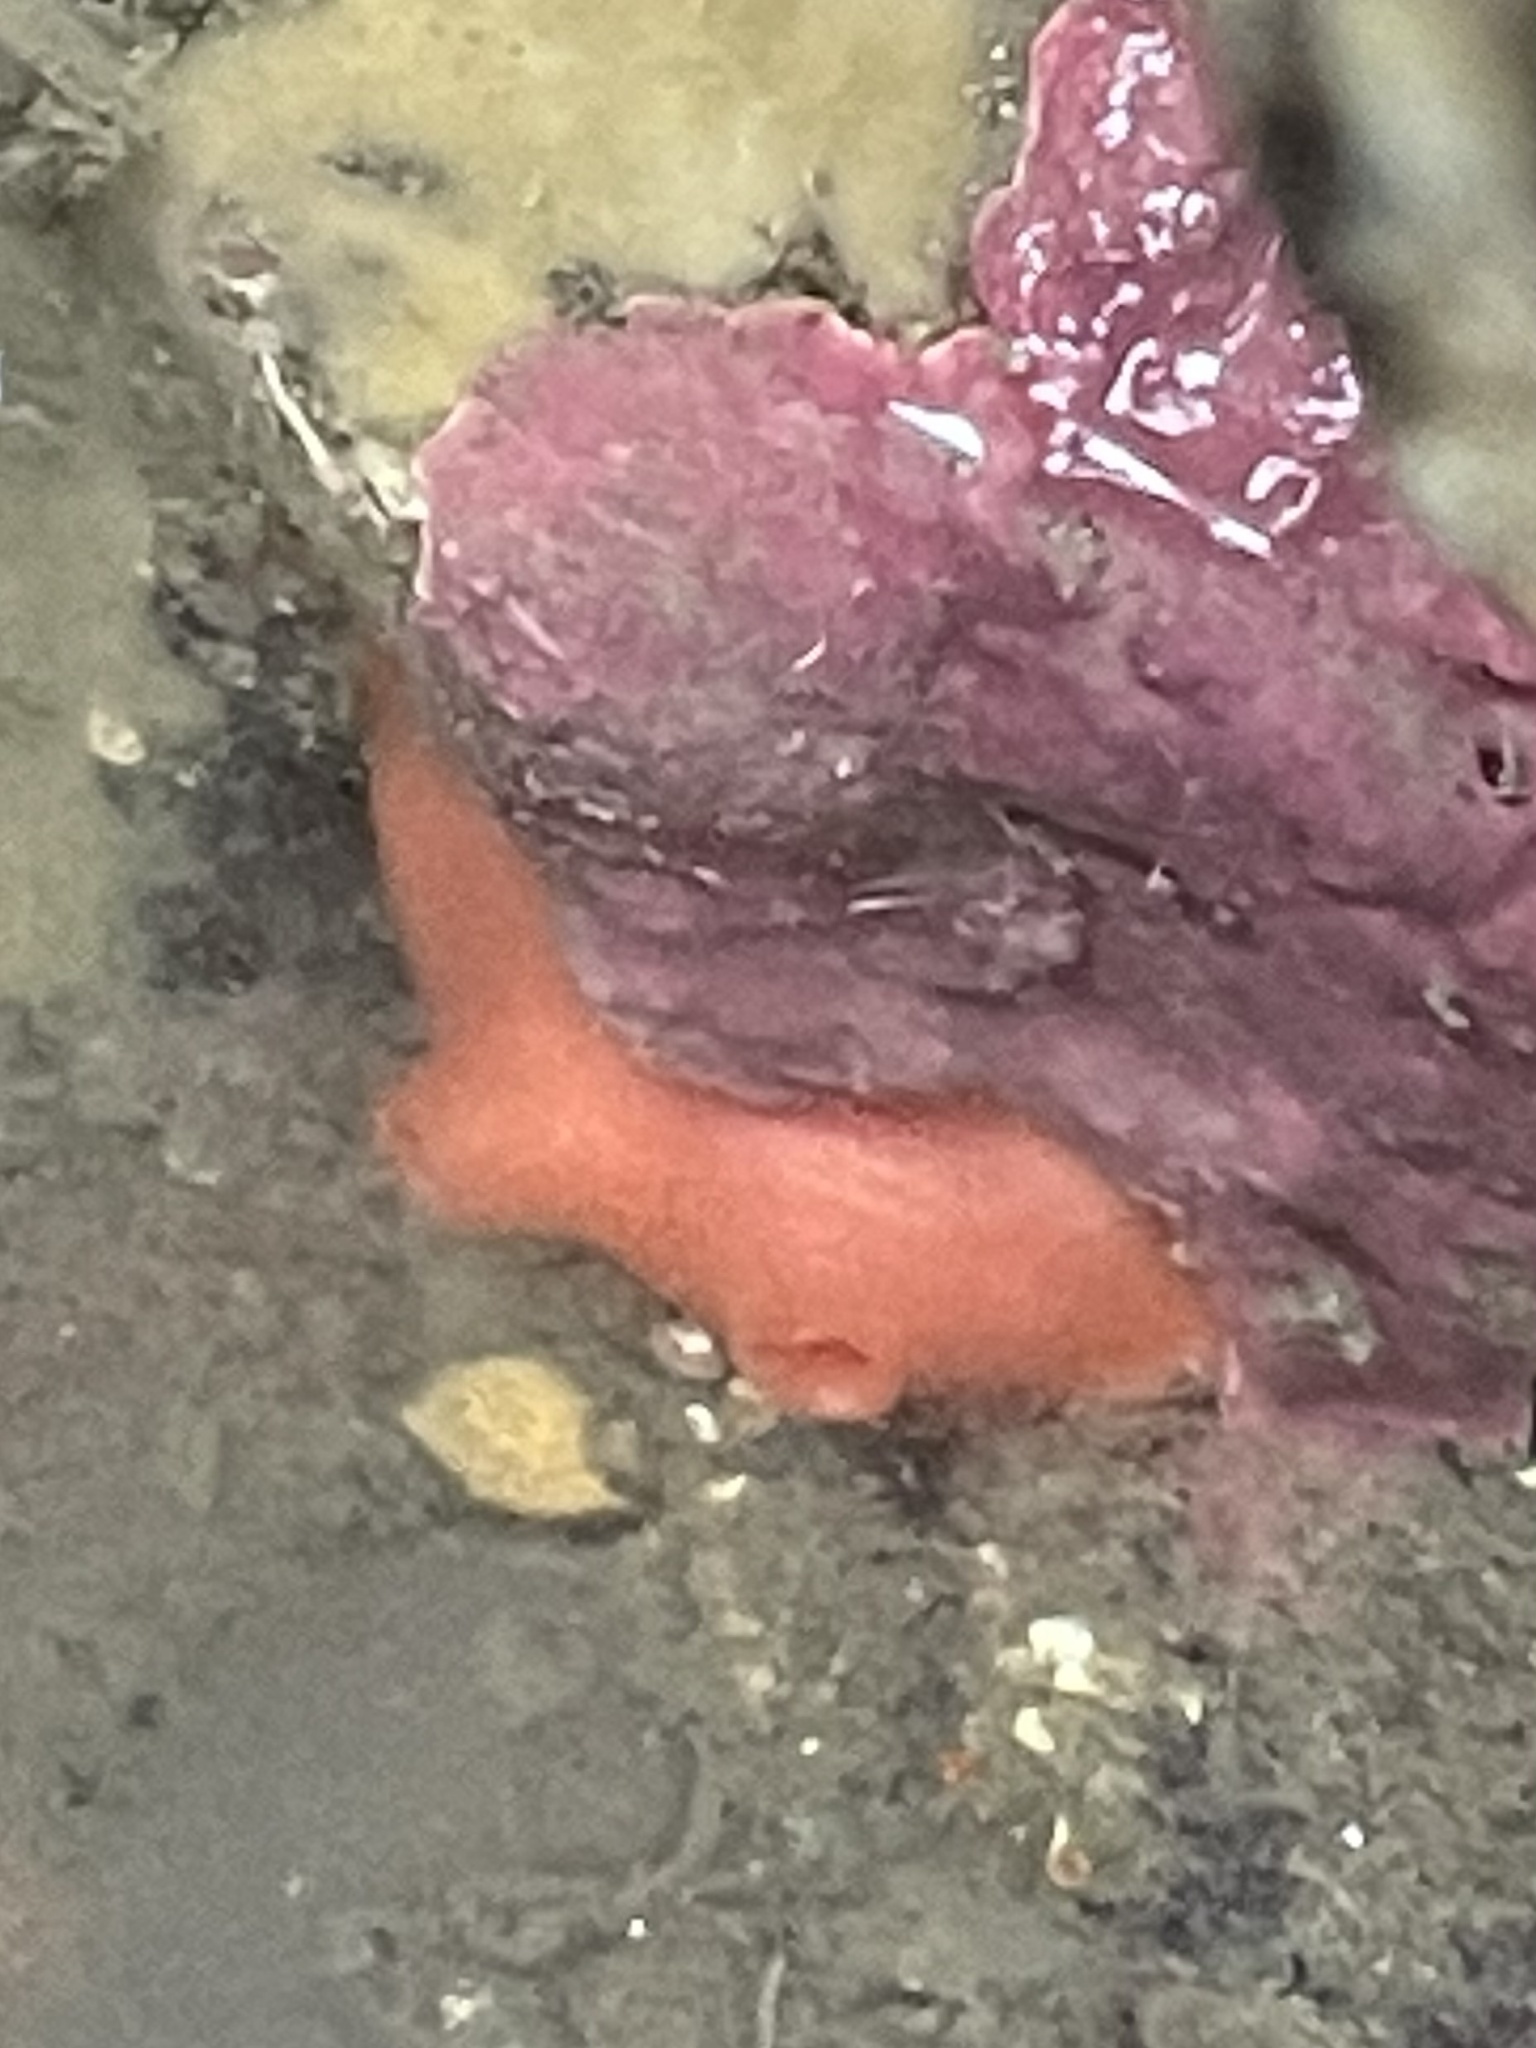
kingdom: Animalia
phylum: Chordata
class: Ascidiacea
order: Stolidobranchia
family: Styelidae
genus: Cnemidocarpa
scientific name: Cnemidocarpa finmarkiensis
